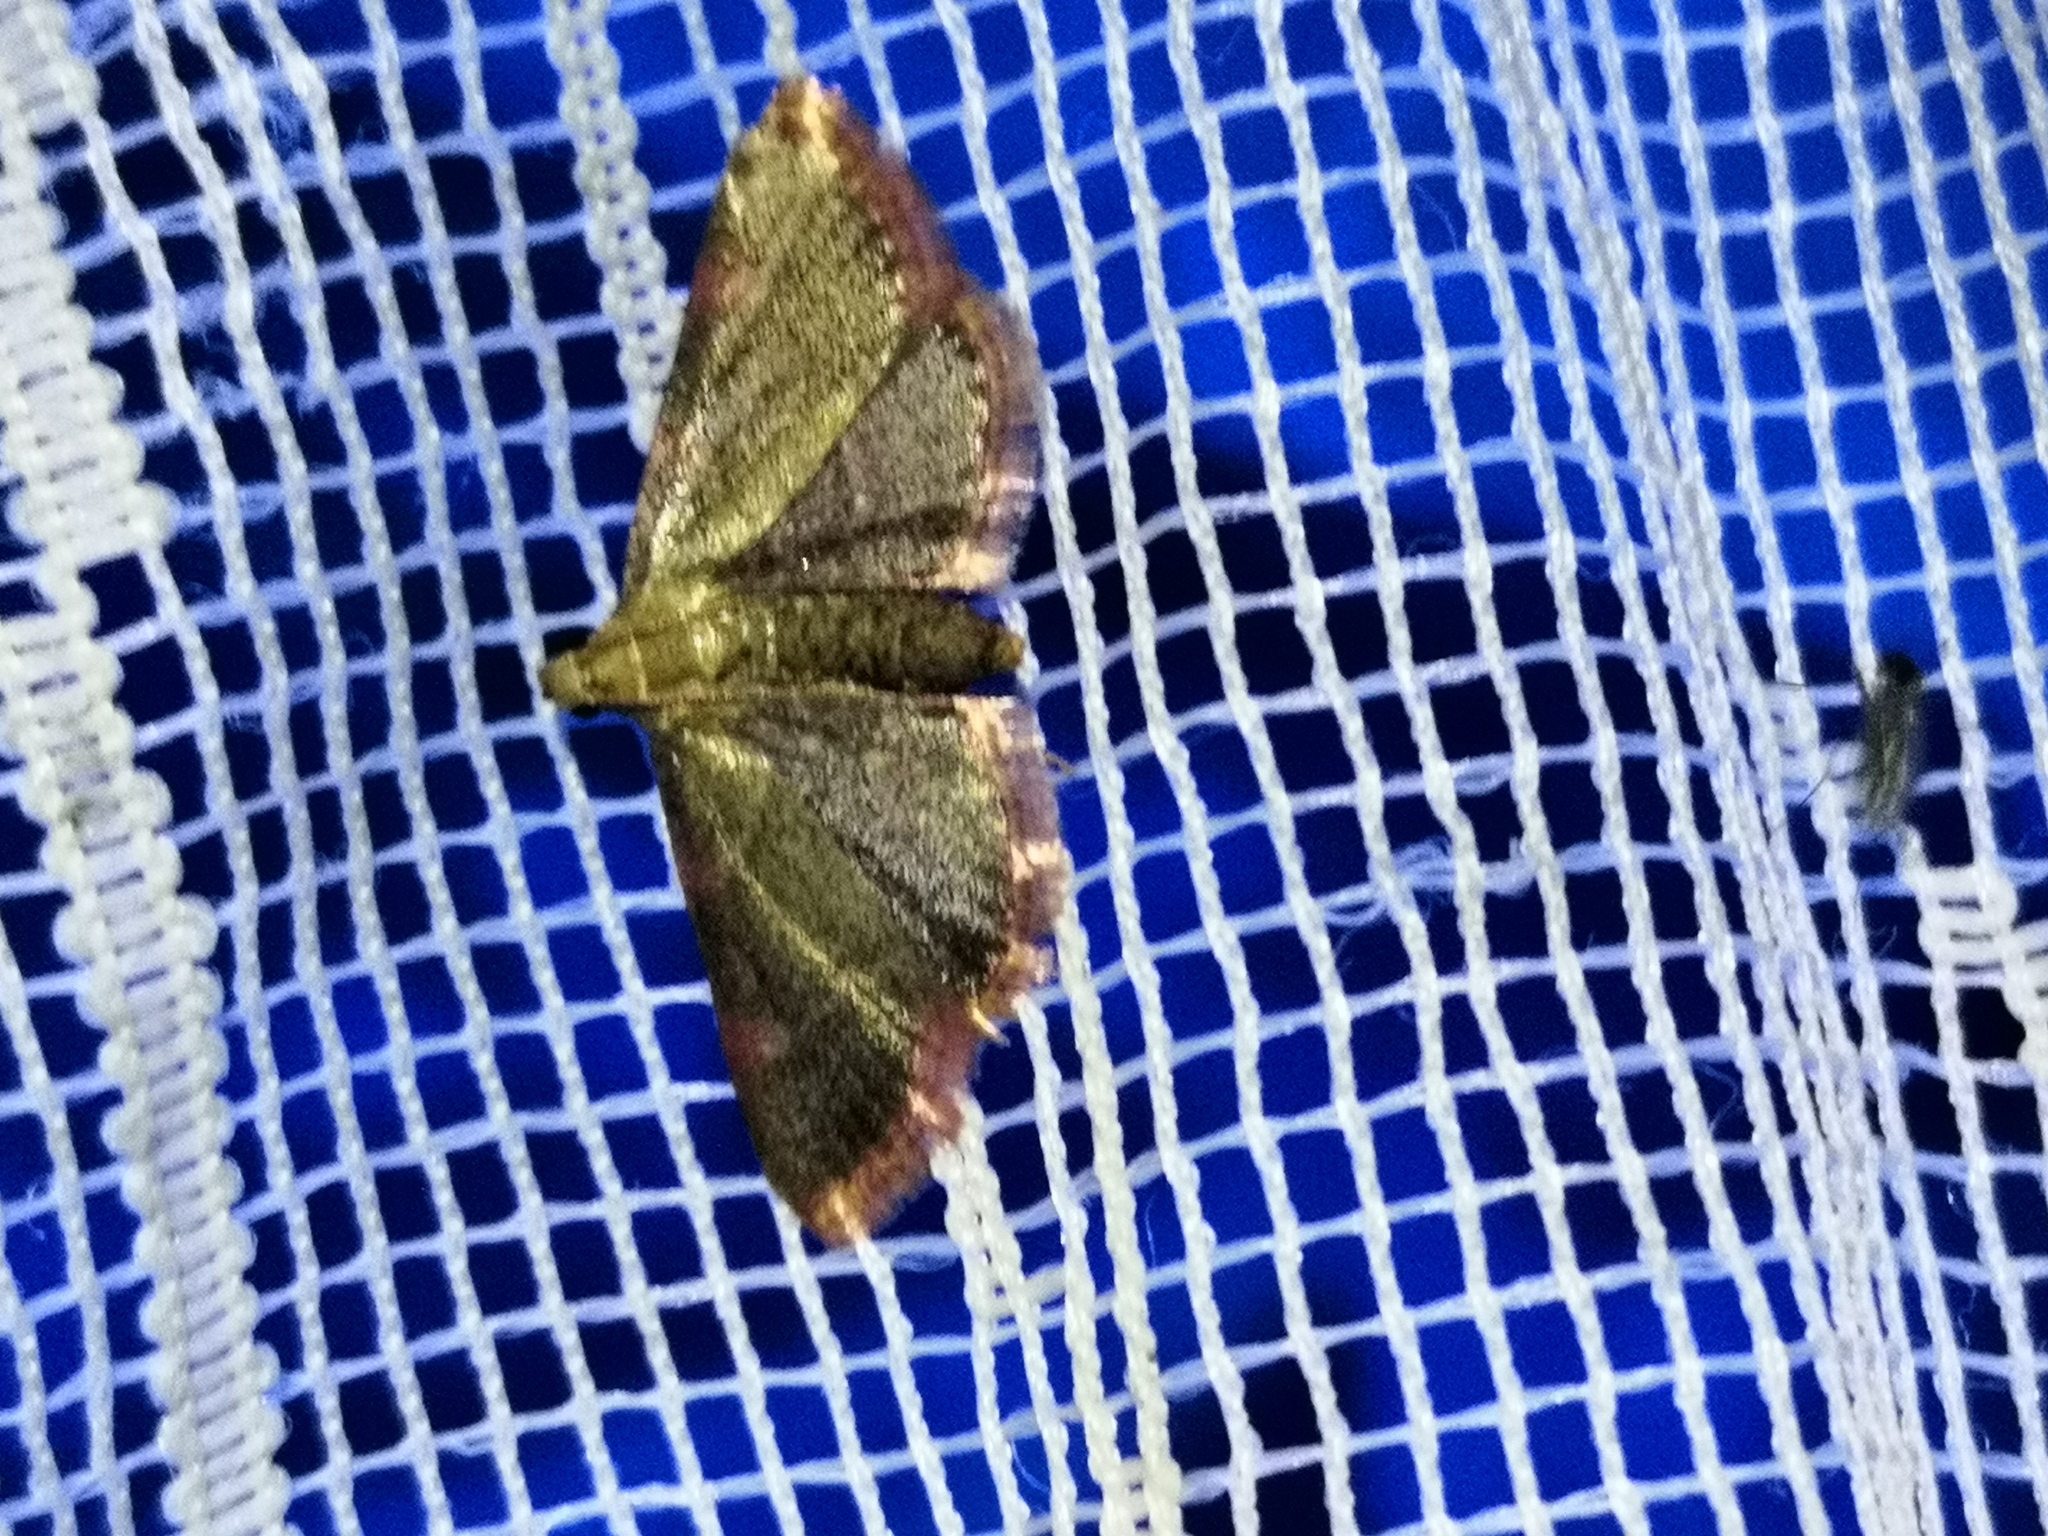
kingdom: Animalia
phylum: Arthropoda
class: Insecta
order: Lepidoptera
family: Pyralidae
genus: Hypsopygia
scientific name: Hypsopygia costalis
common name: Gold triangle
